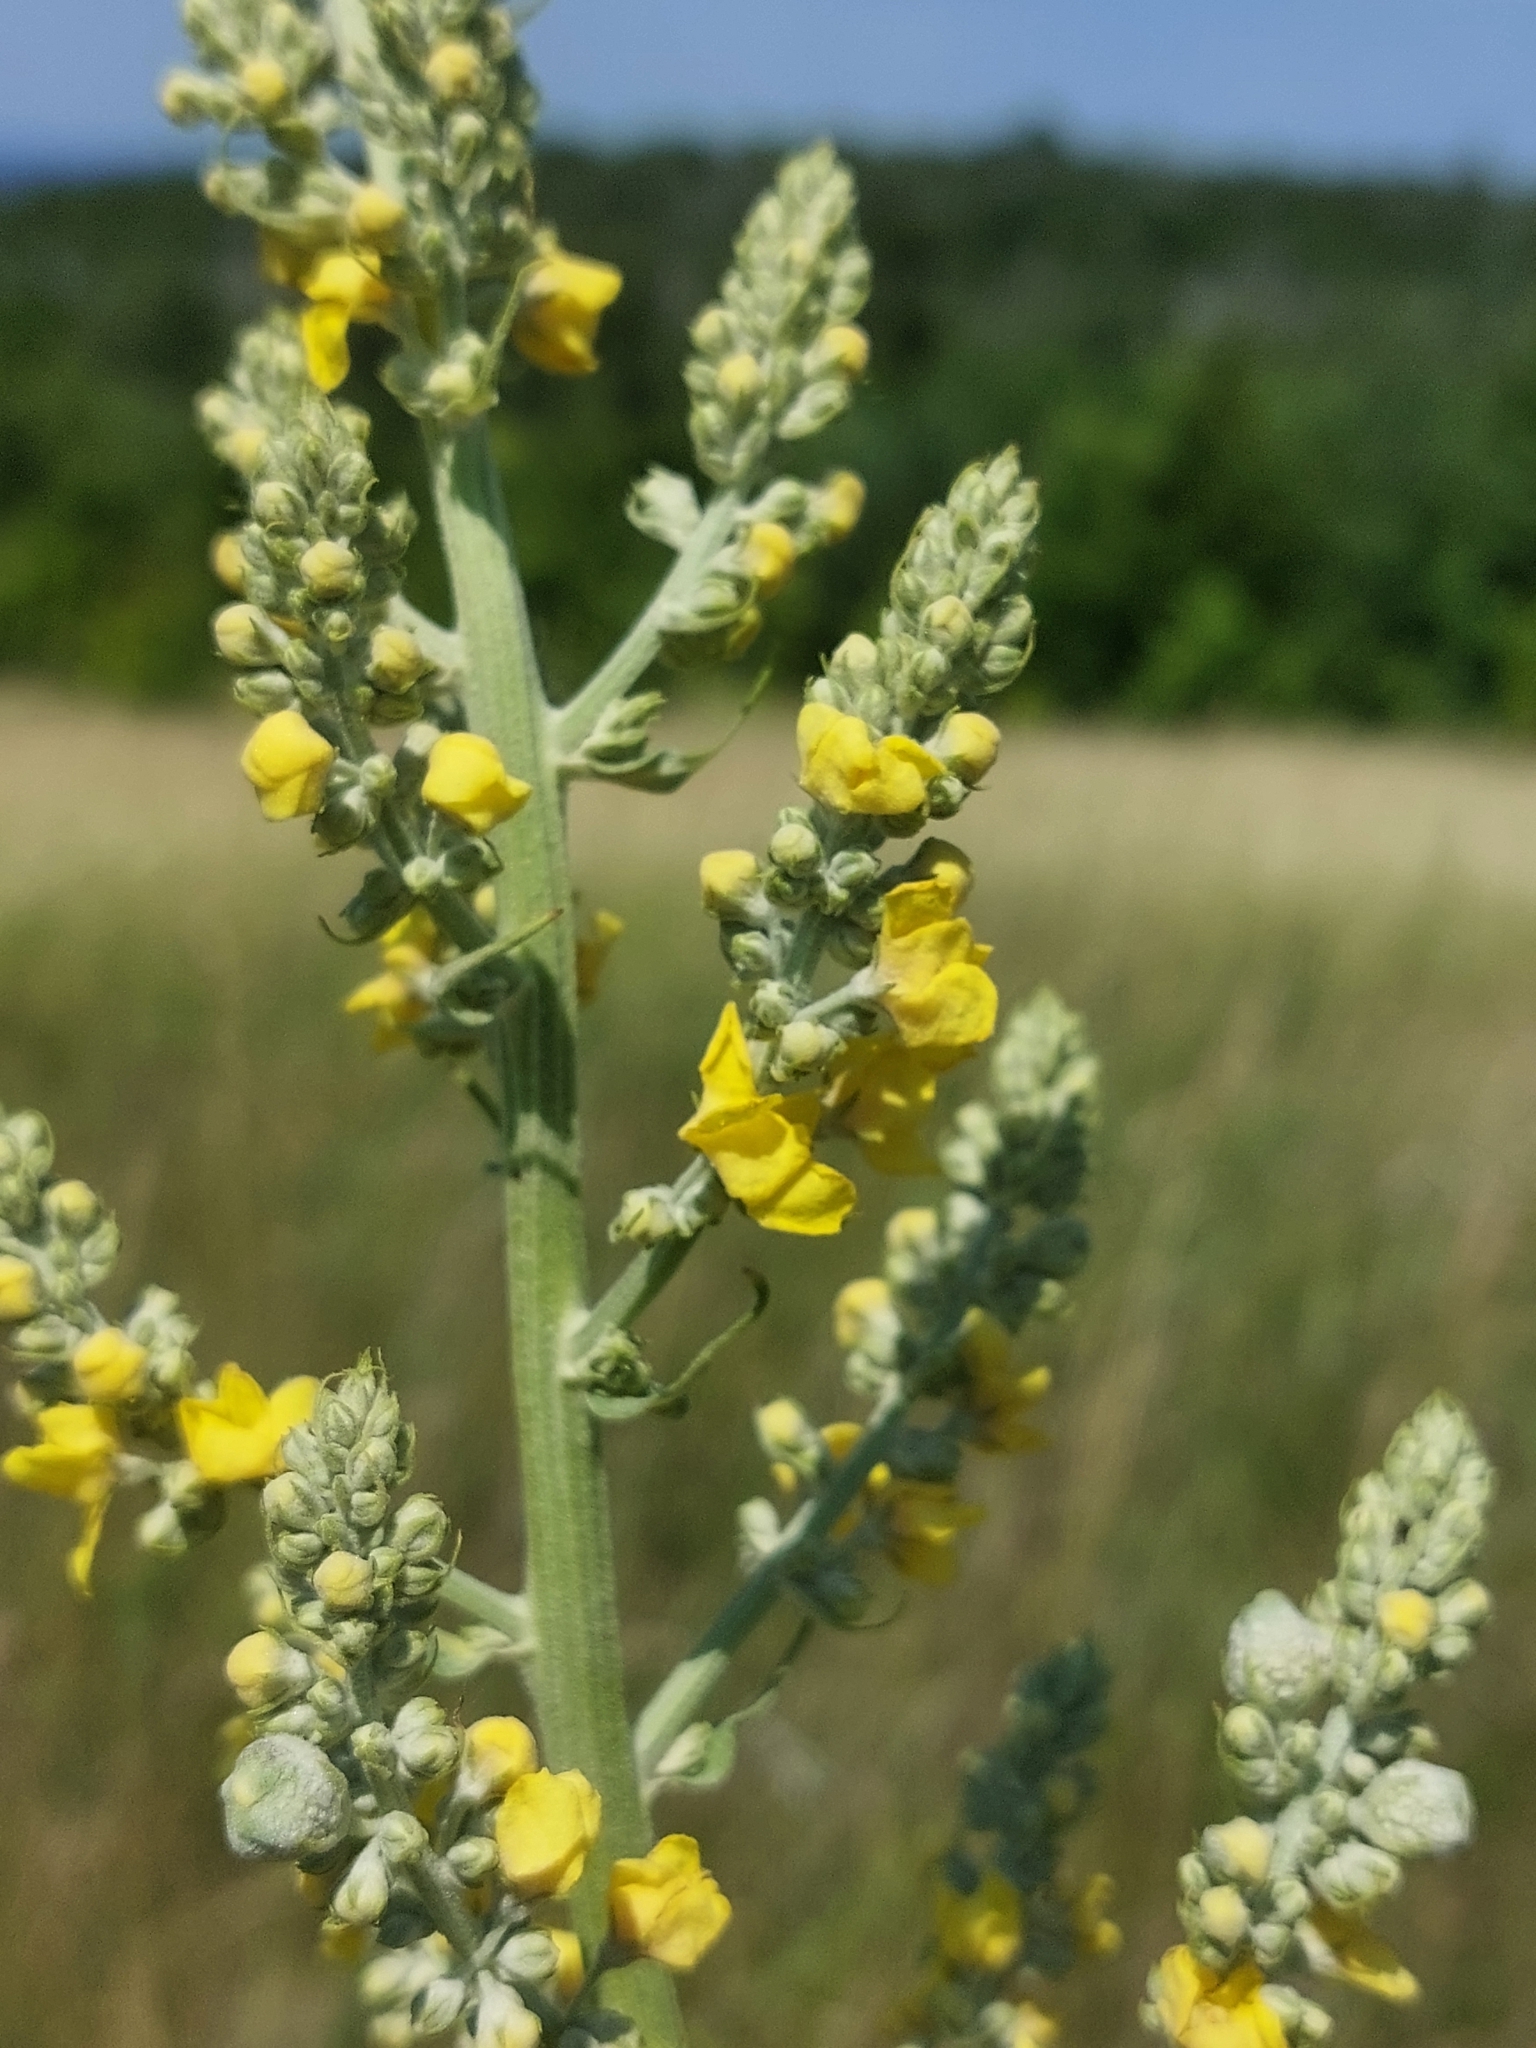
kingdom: Plantae
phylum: Tracheophyta
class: Magnoliopsida
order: Lamiales
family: Scrophulariaceae
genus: Verbascum
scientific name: Verbascum lychnitis
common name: White mullein
